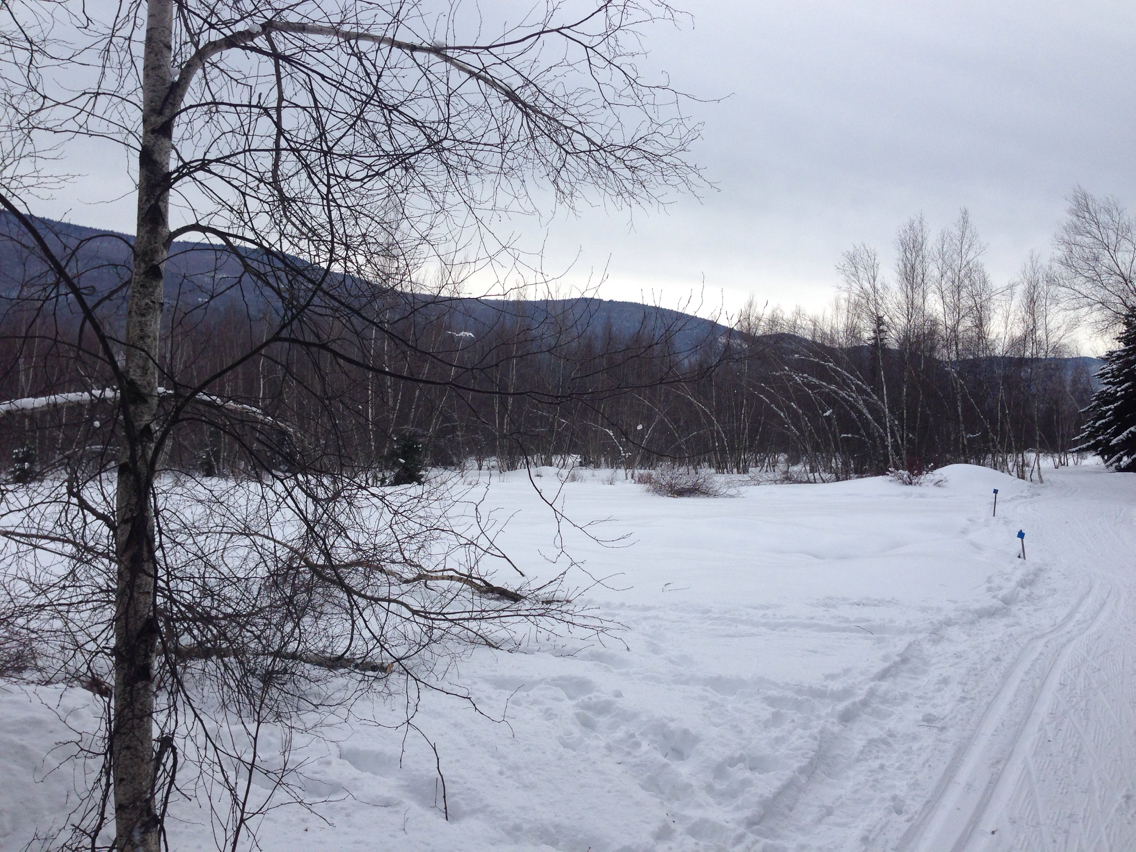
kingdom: Plantae
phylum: Tracheophyta
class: Magnoliopsida
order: Fagales
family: Betulaceae
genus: Betula
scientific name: Betula populifolia
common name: Fire birch
